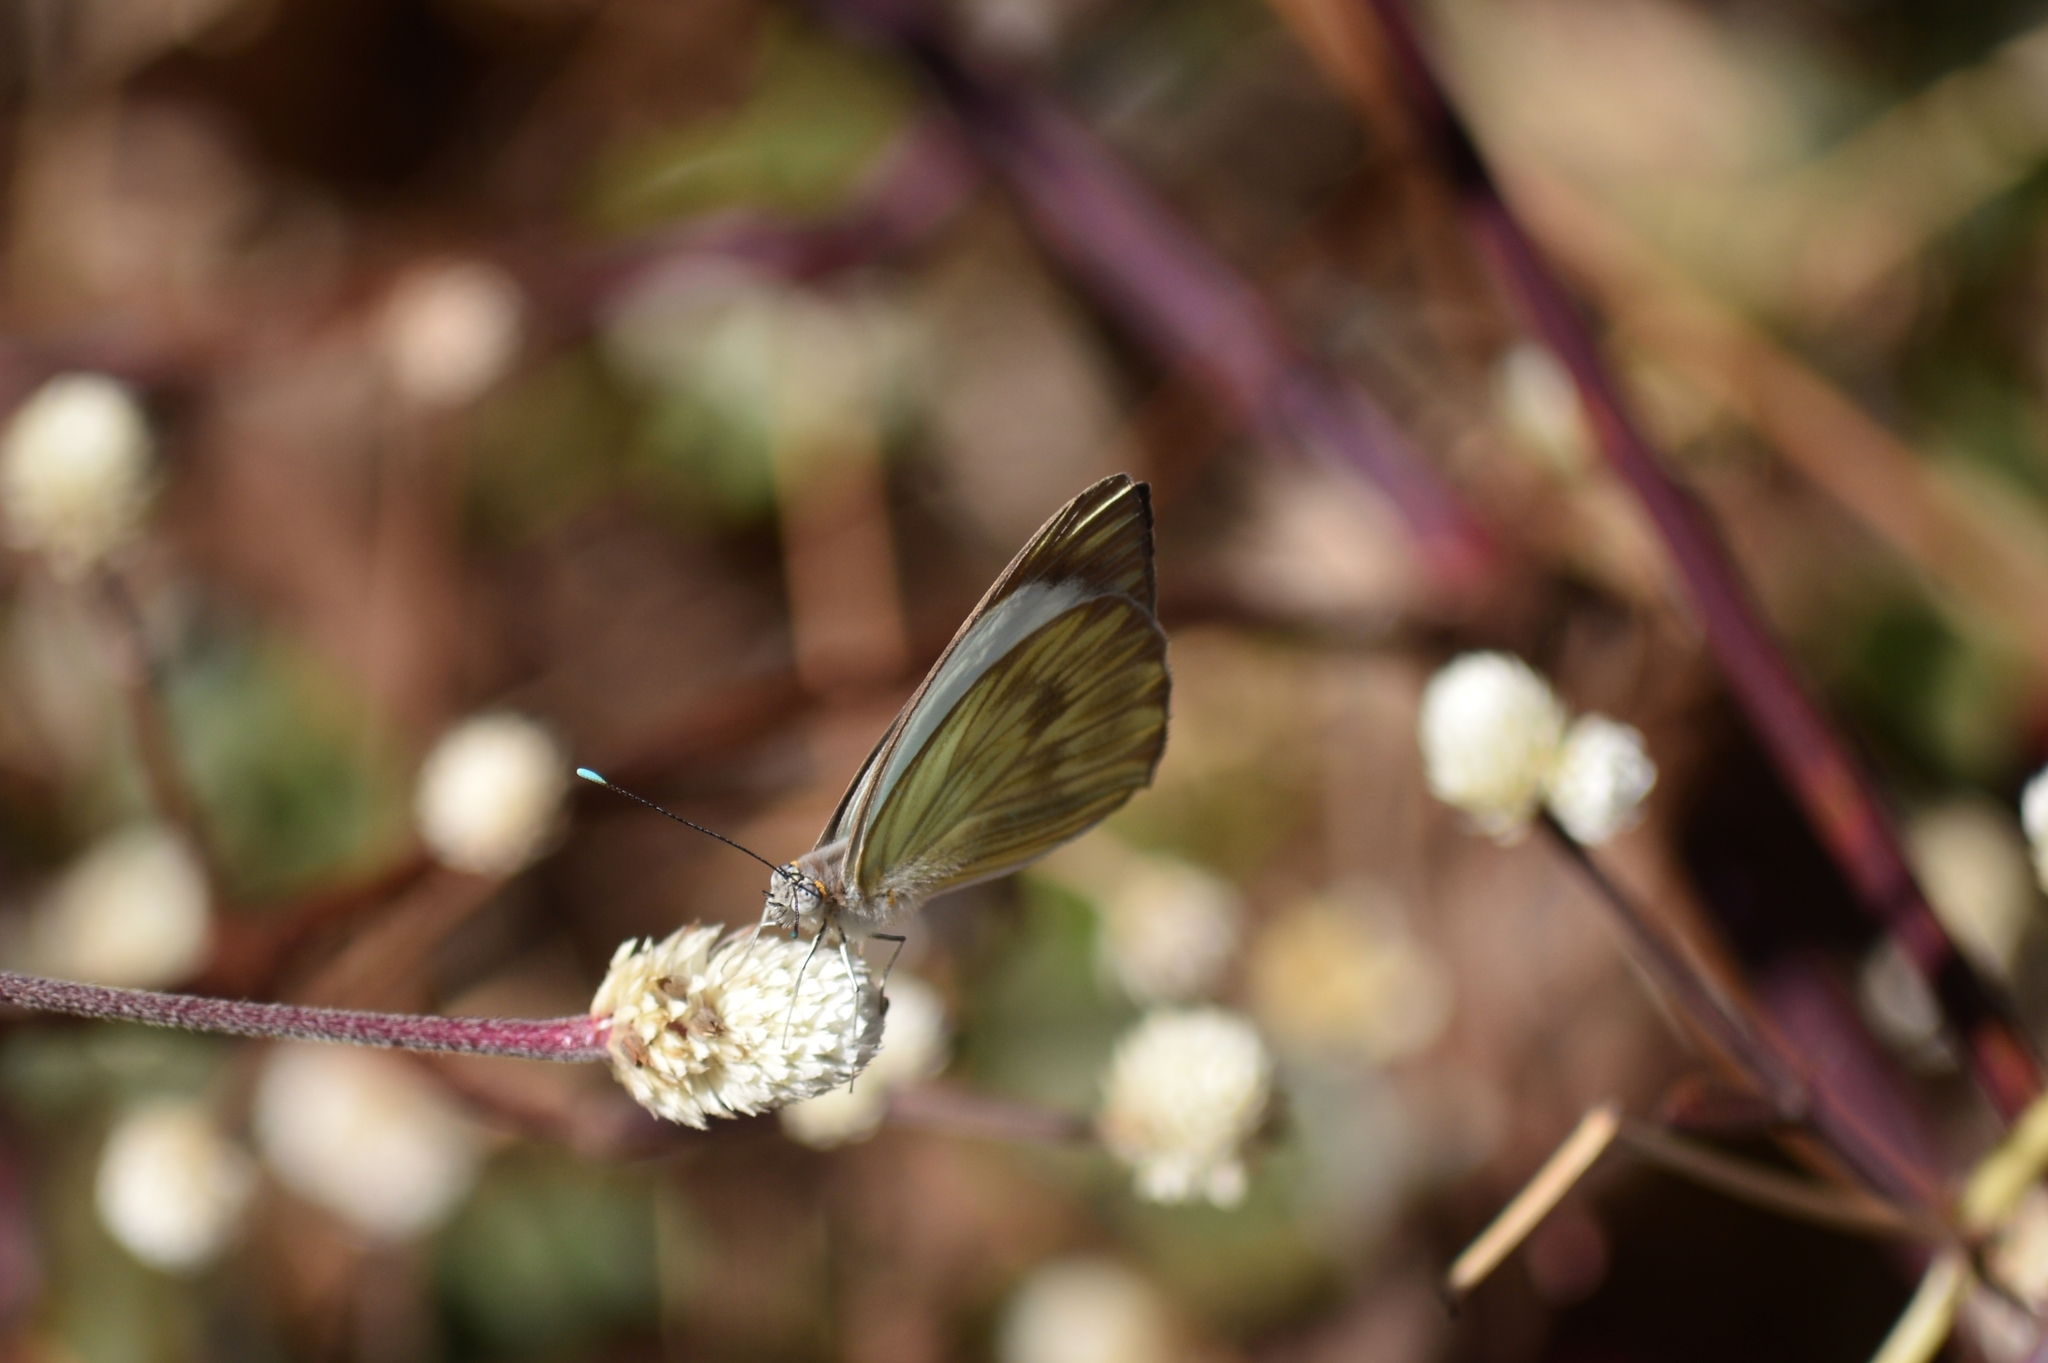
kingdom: Animalia
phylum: Arthropoda
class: Insecta
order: Lepidoptera
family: Pieridae
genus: Ascia
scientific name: Ascia monuste
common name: Great southern white
